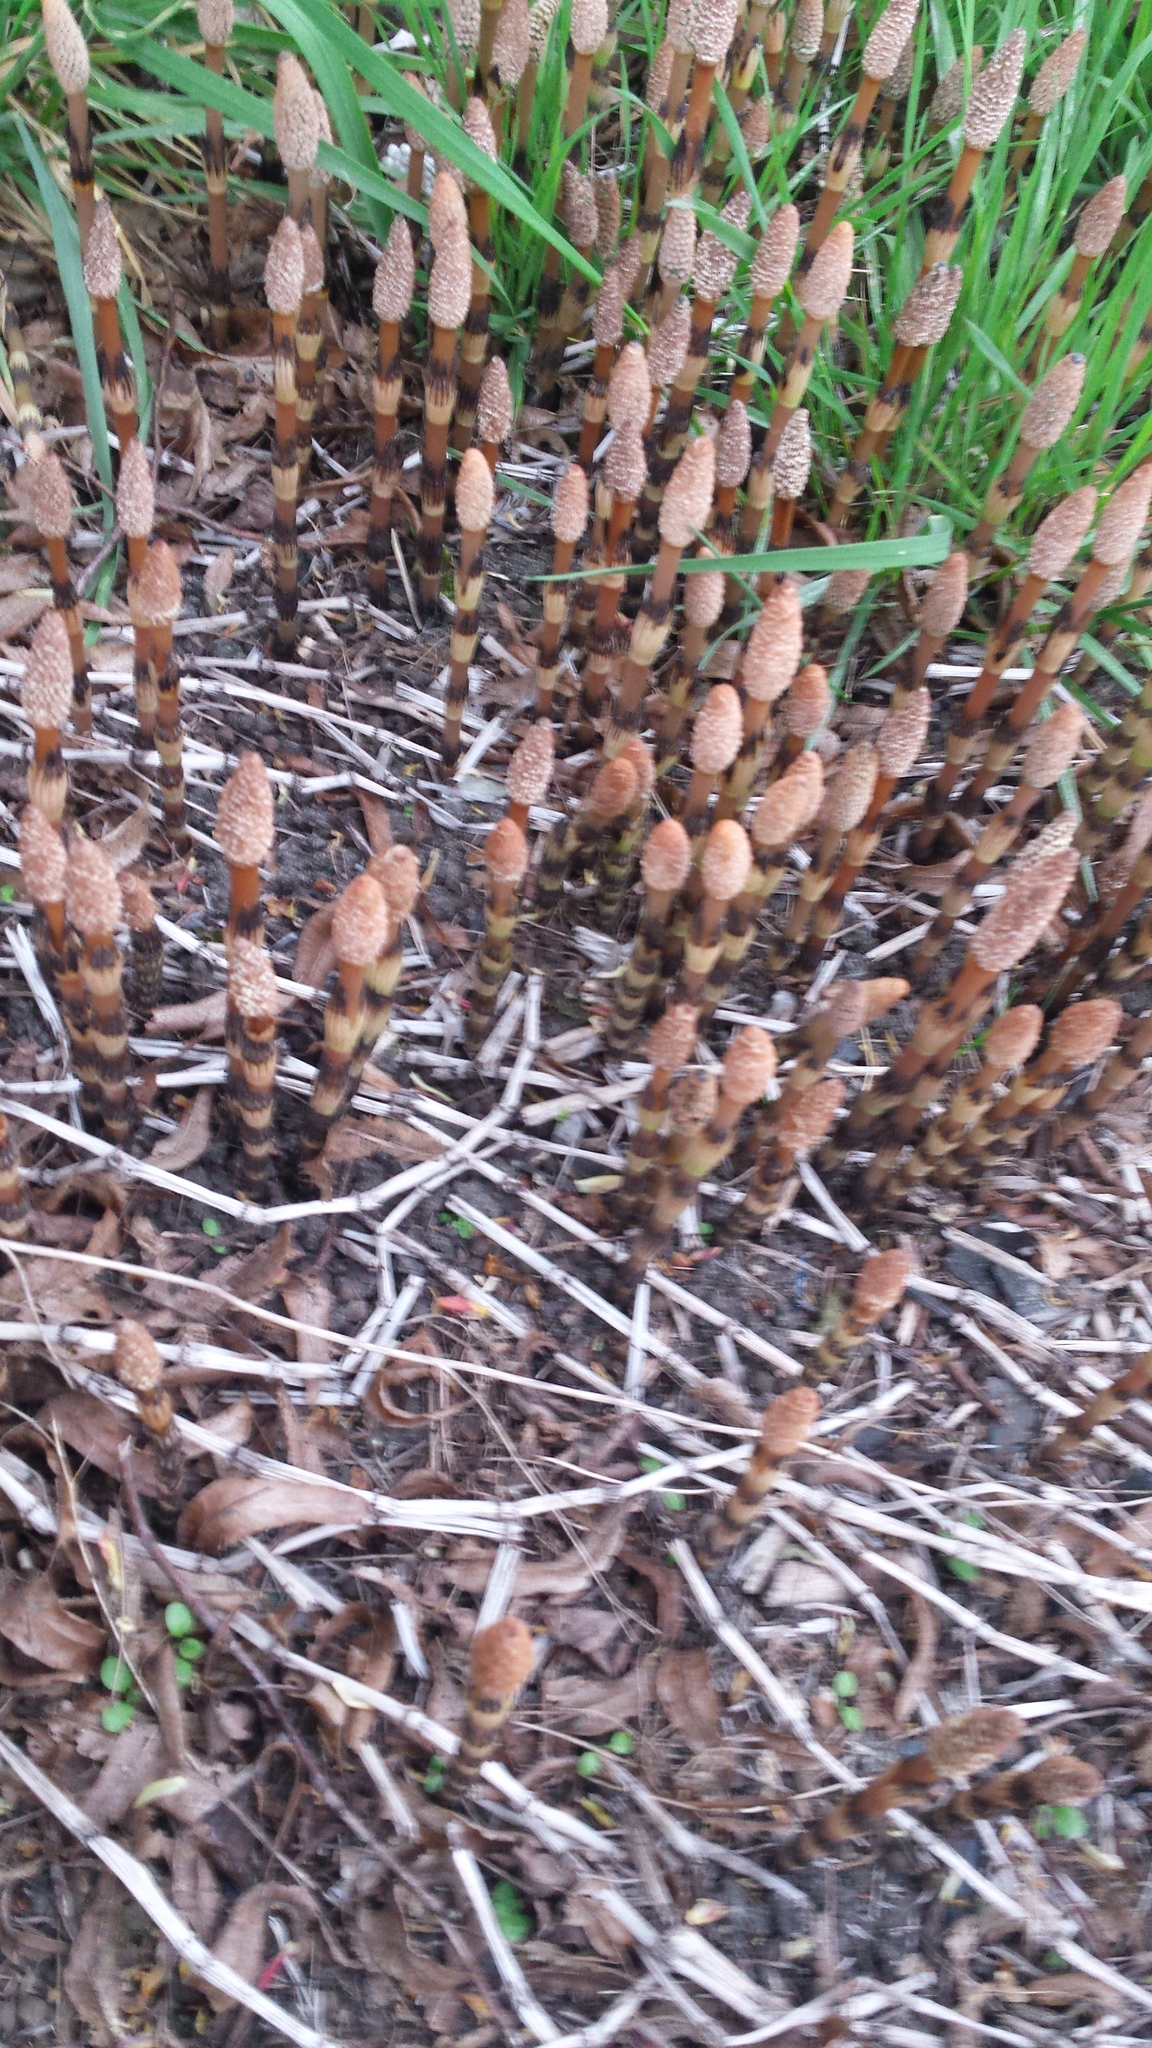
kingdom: Plantae
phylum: Tracheophyta
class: Polypodiopsida
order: Equisetales
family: Equisetaceae
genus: Equisetum
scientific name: Equisetum arvense
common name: Field horsetail
